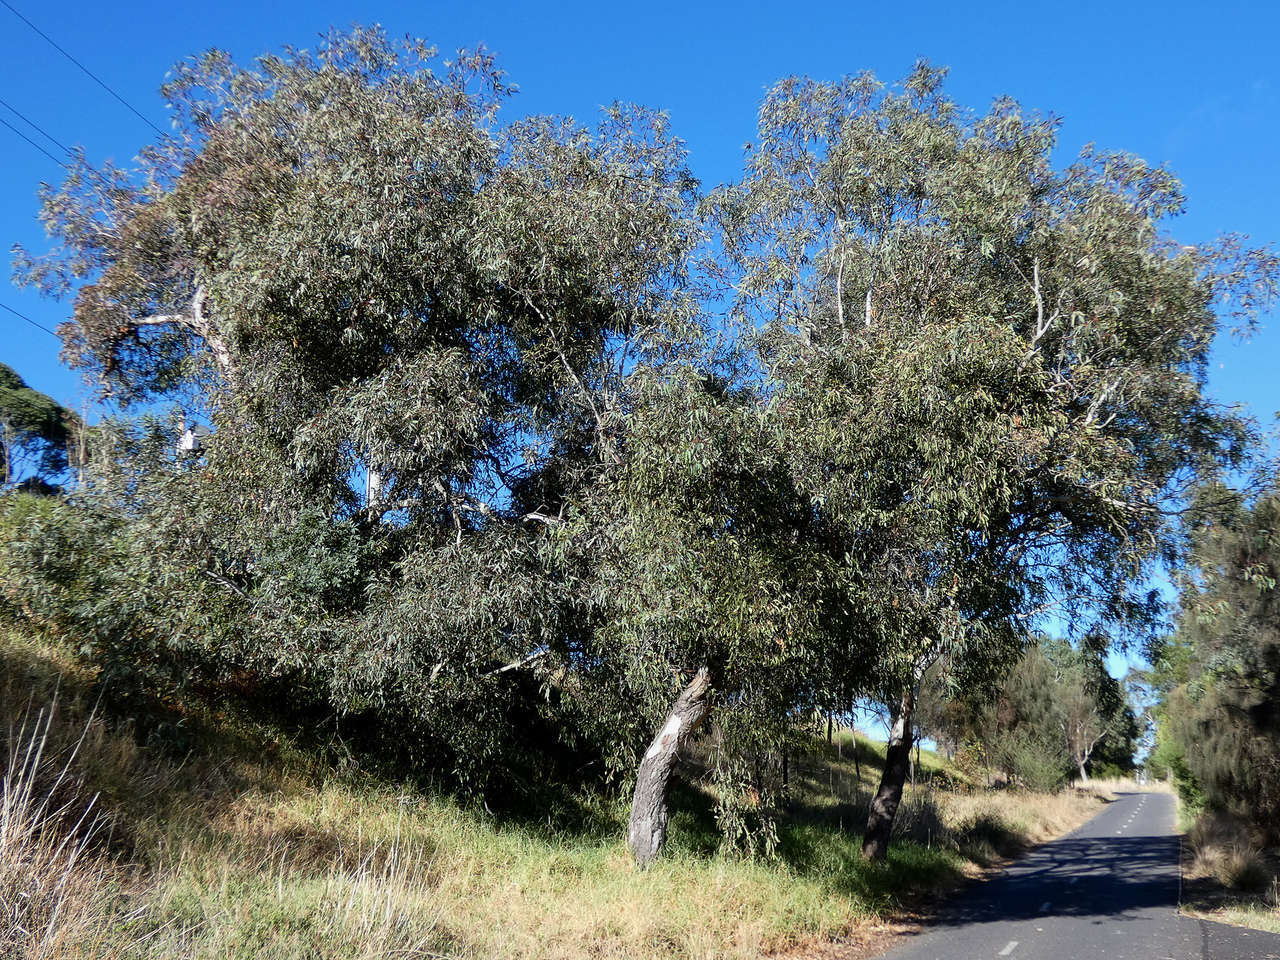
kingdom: Plantae
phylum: Tracheophyta
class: Magnoliopsida
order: Santalales
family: Loranthaceae
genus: Muellerina
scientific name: Muellerina eucalyptoides
